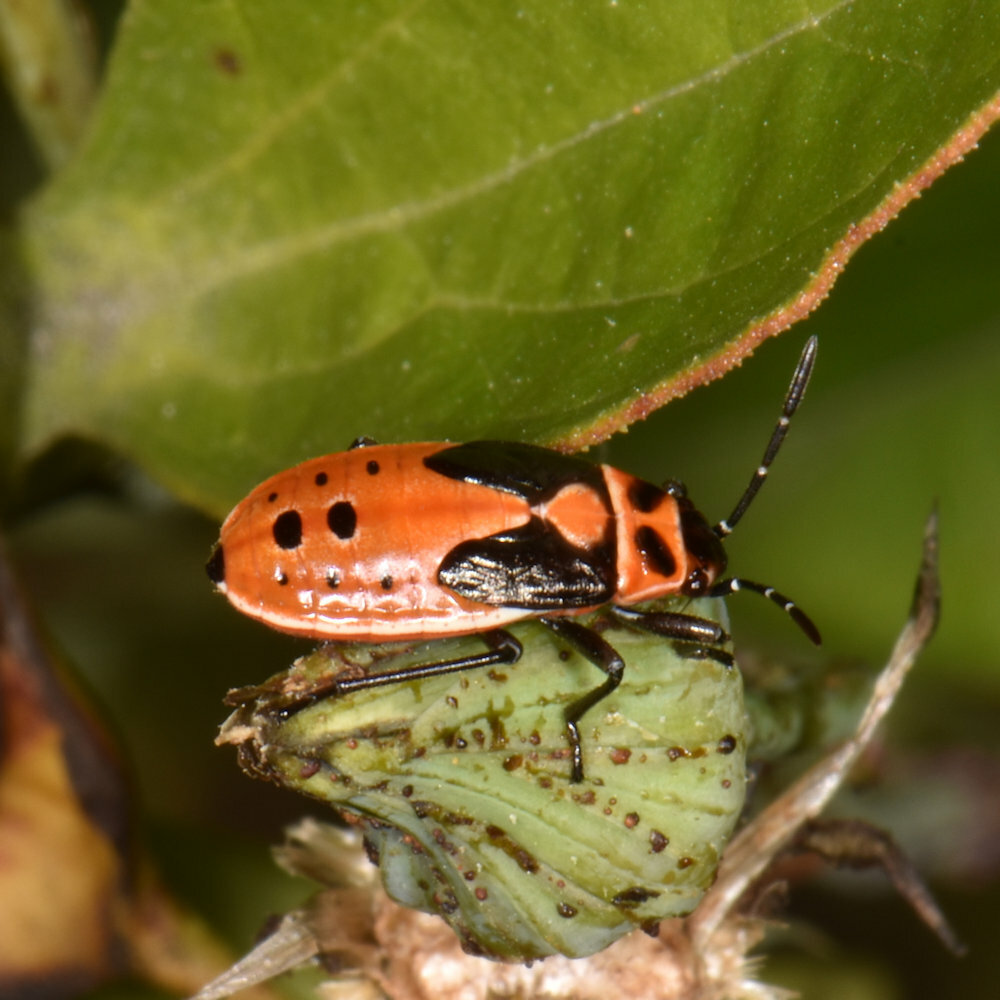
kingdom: Animalia
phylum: Arthropoda
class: Insecta
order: Hemiptera
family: Lygaeidae
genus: Lygaeus
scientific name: Lygaeus kalmii
